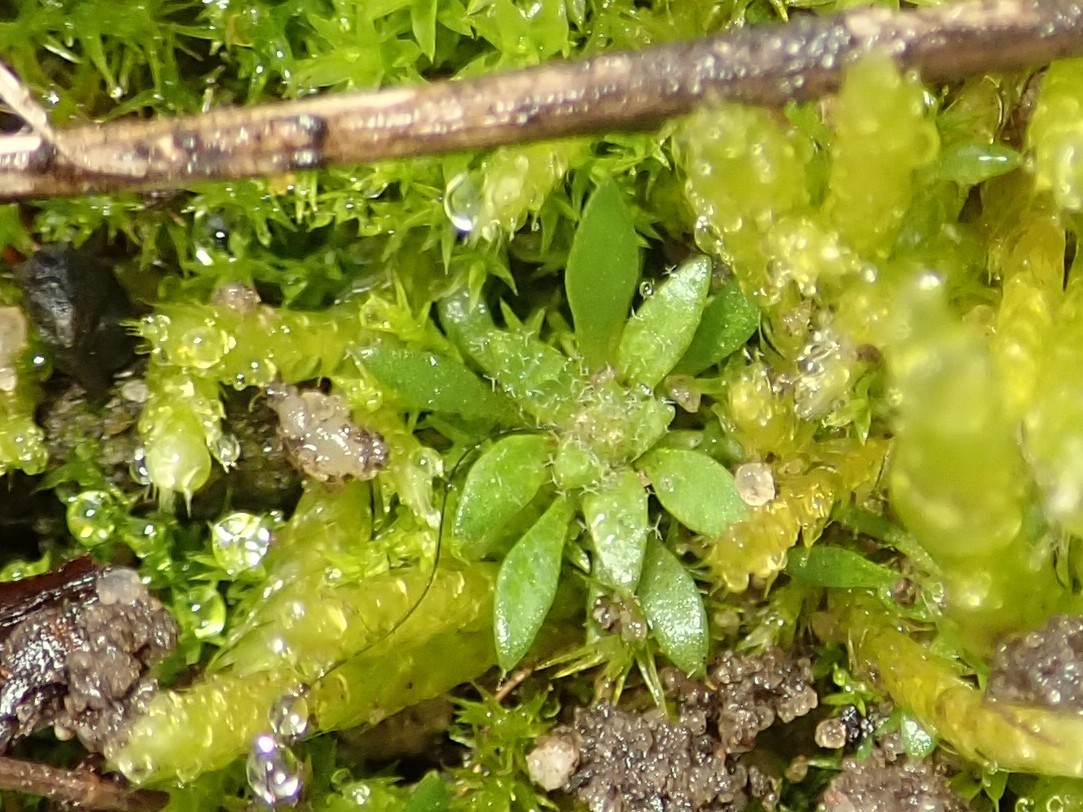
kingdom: Plantae
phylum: Tracheophyta
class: Magnoliopsida
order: Brassicales
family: Brassicaceae
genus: Draba
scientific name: Draba verna
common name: Spring draba
